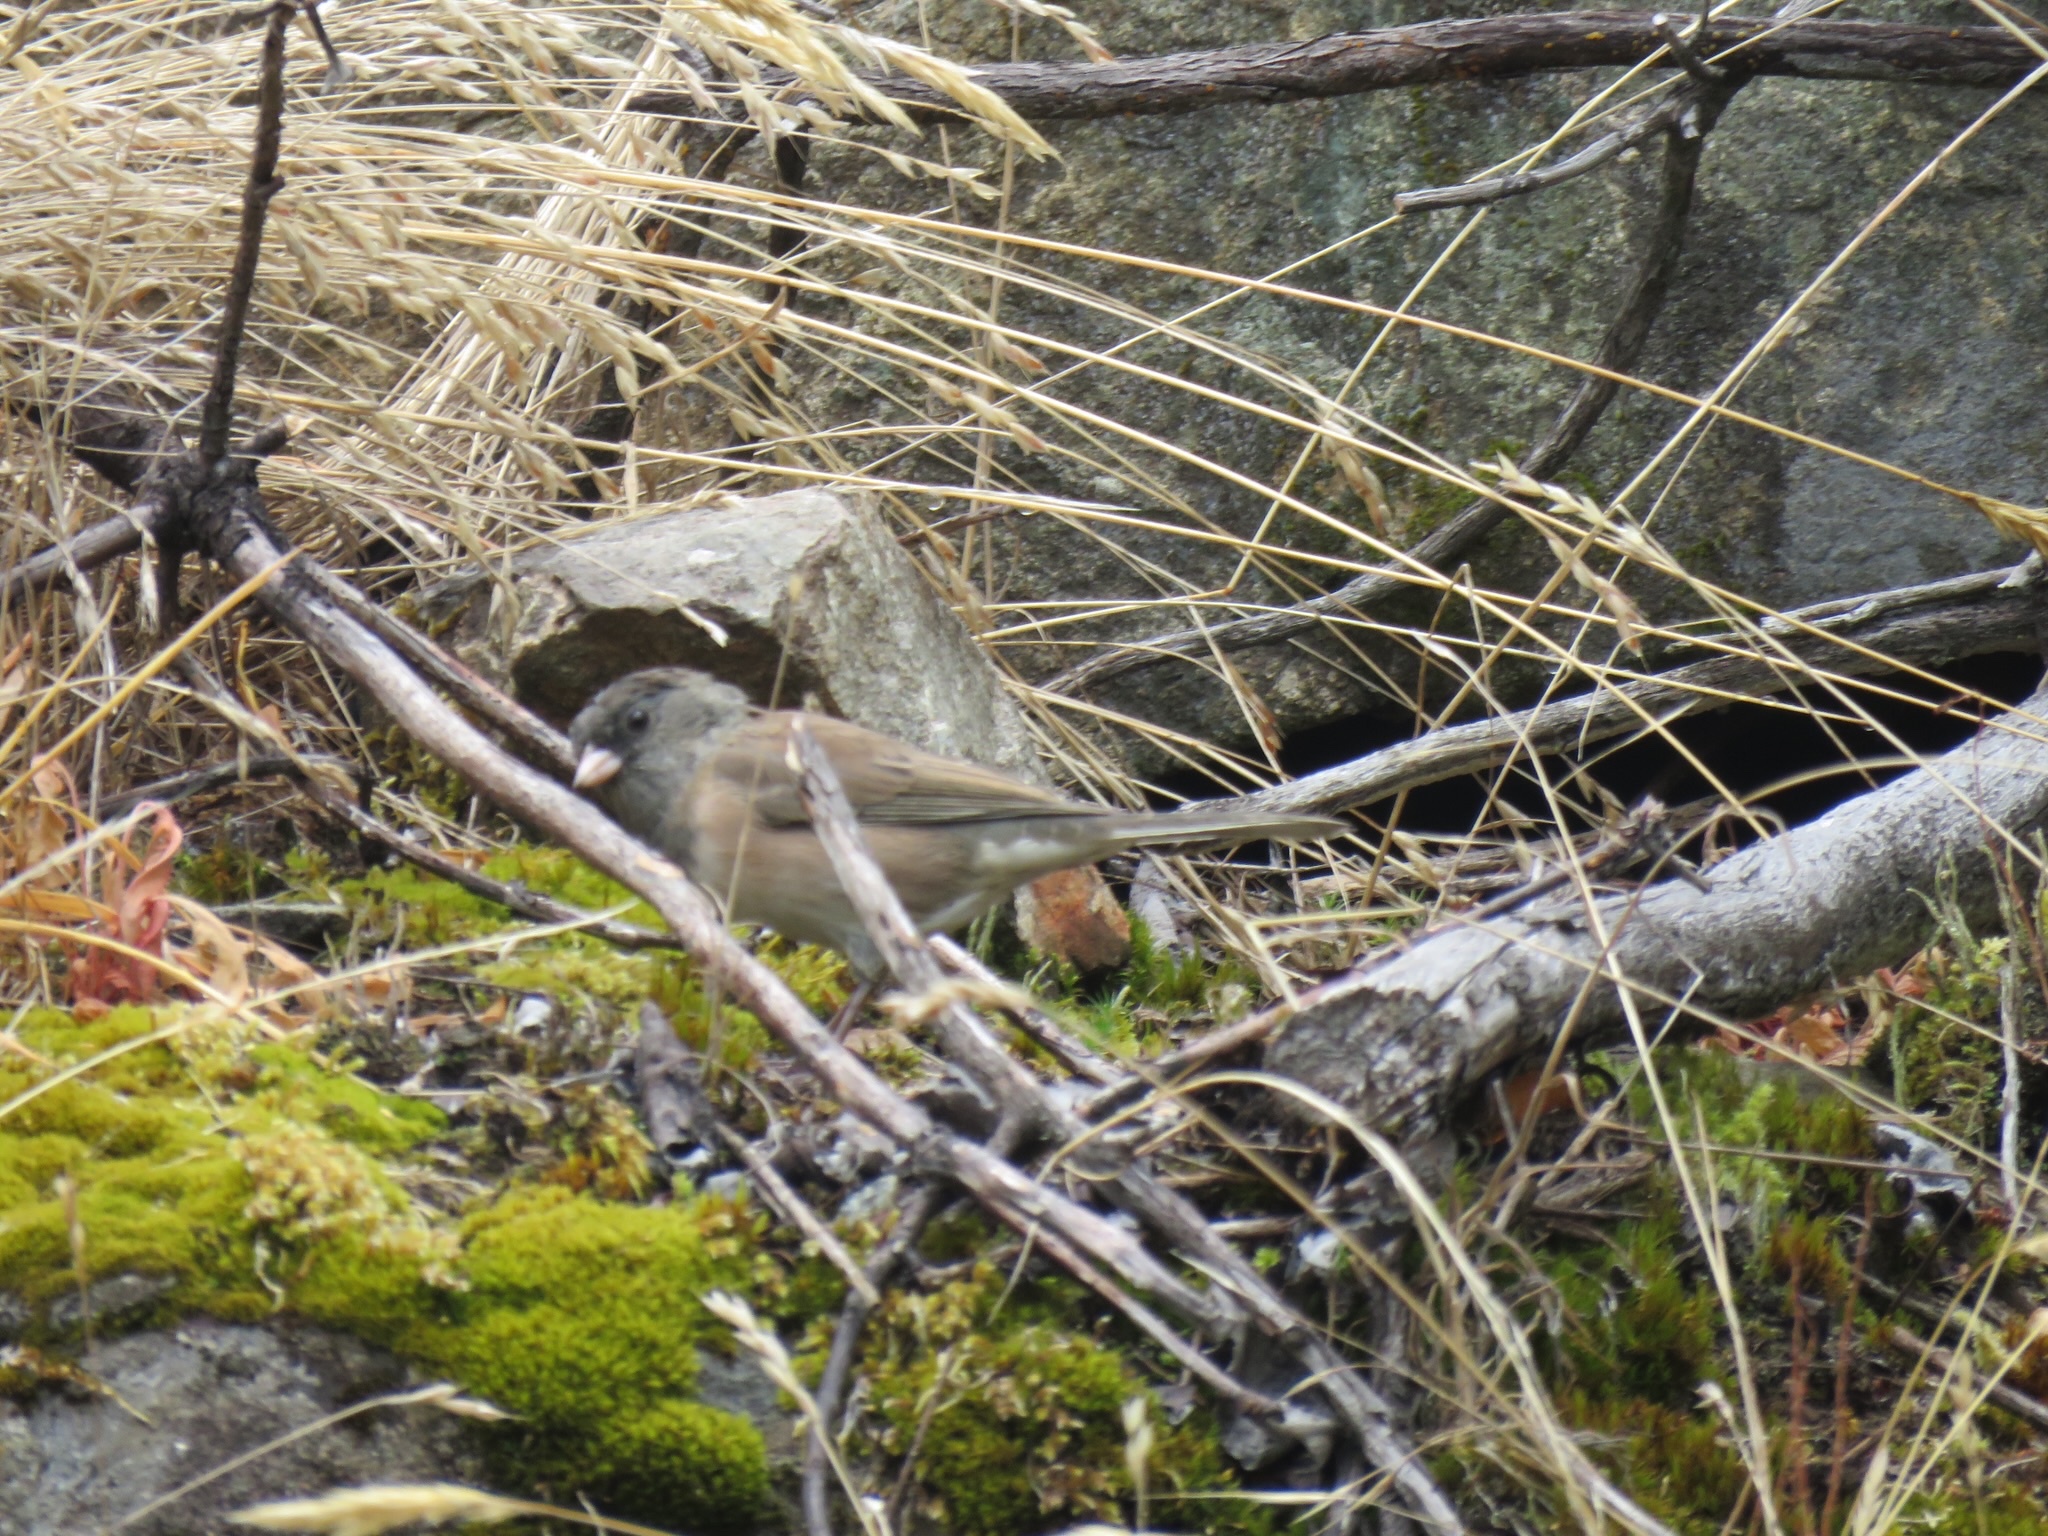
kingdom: Animalia
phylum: Chordata
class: Aves
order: Passeriformes
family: Passerellidae
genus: Junco
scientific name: Junco hyemalis
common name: Dark-eyed junco
